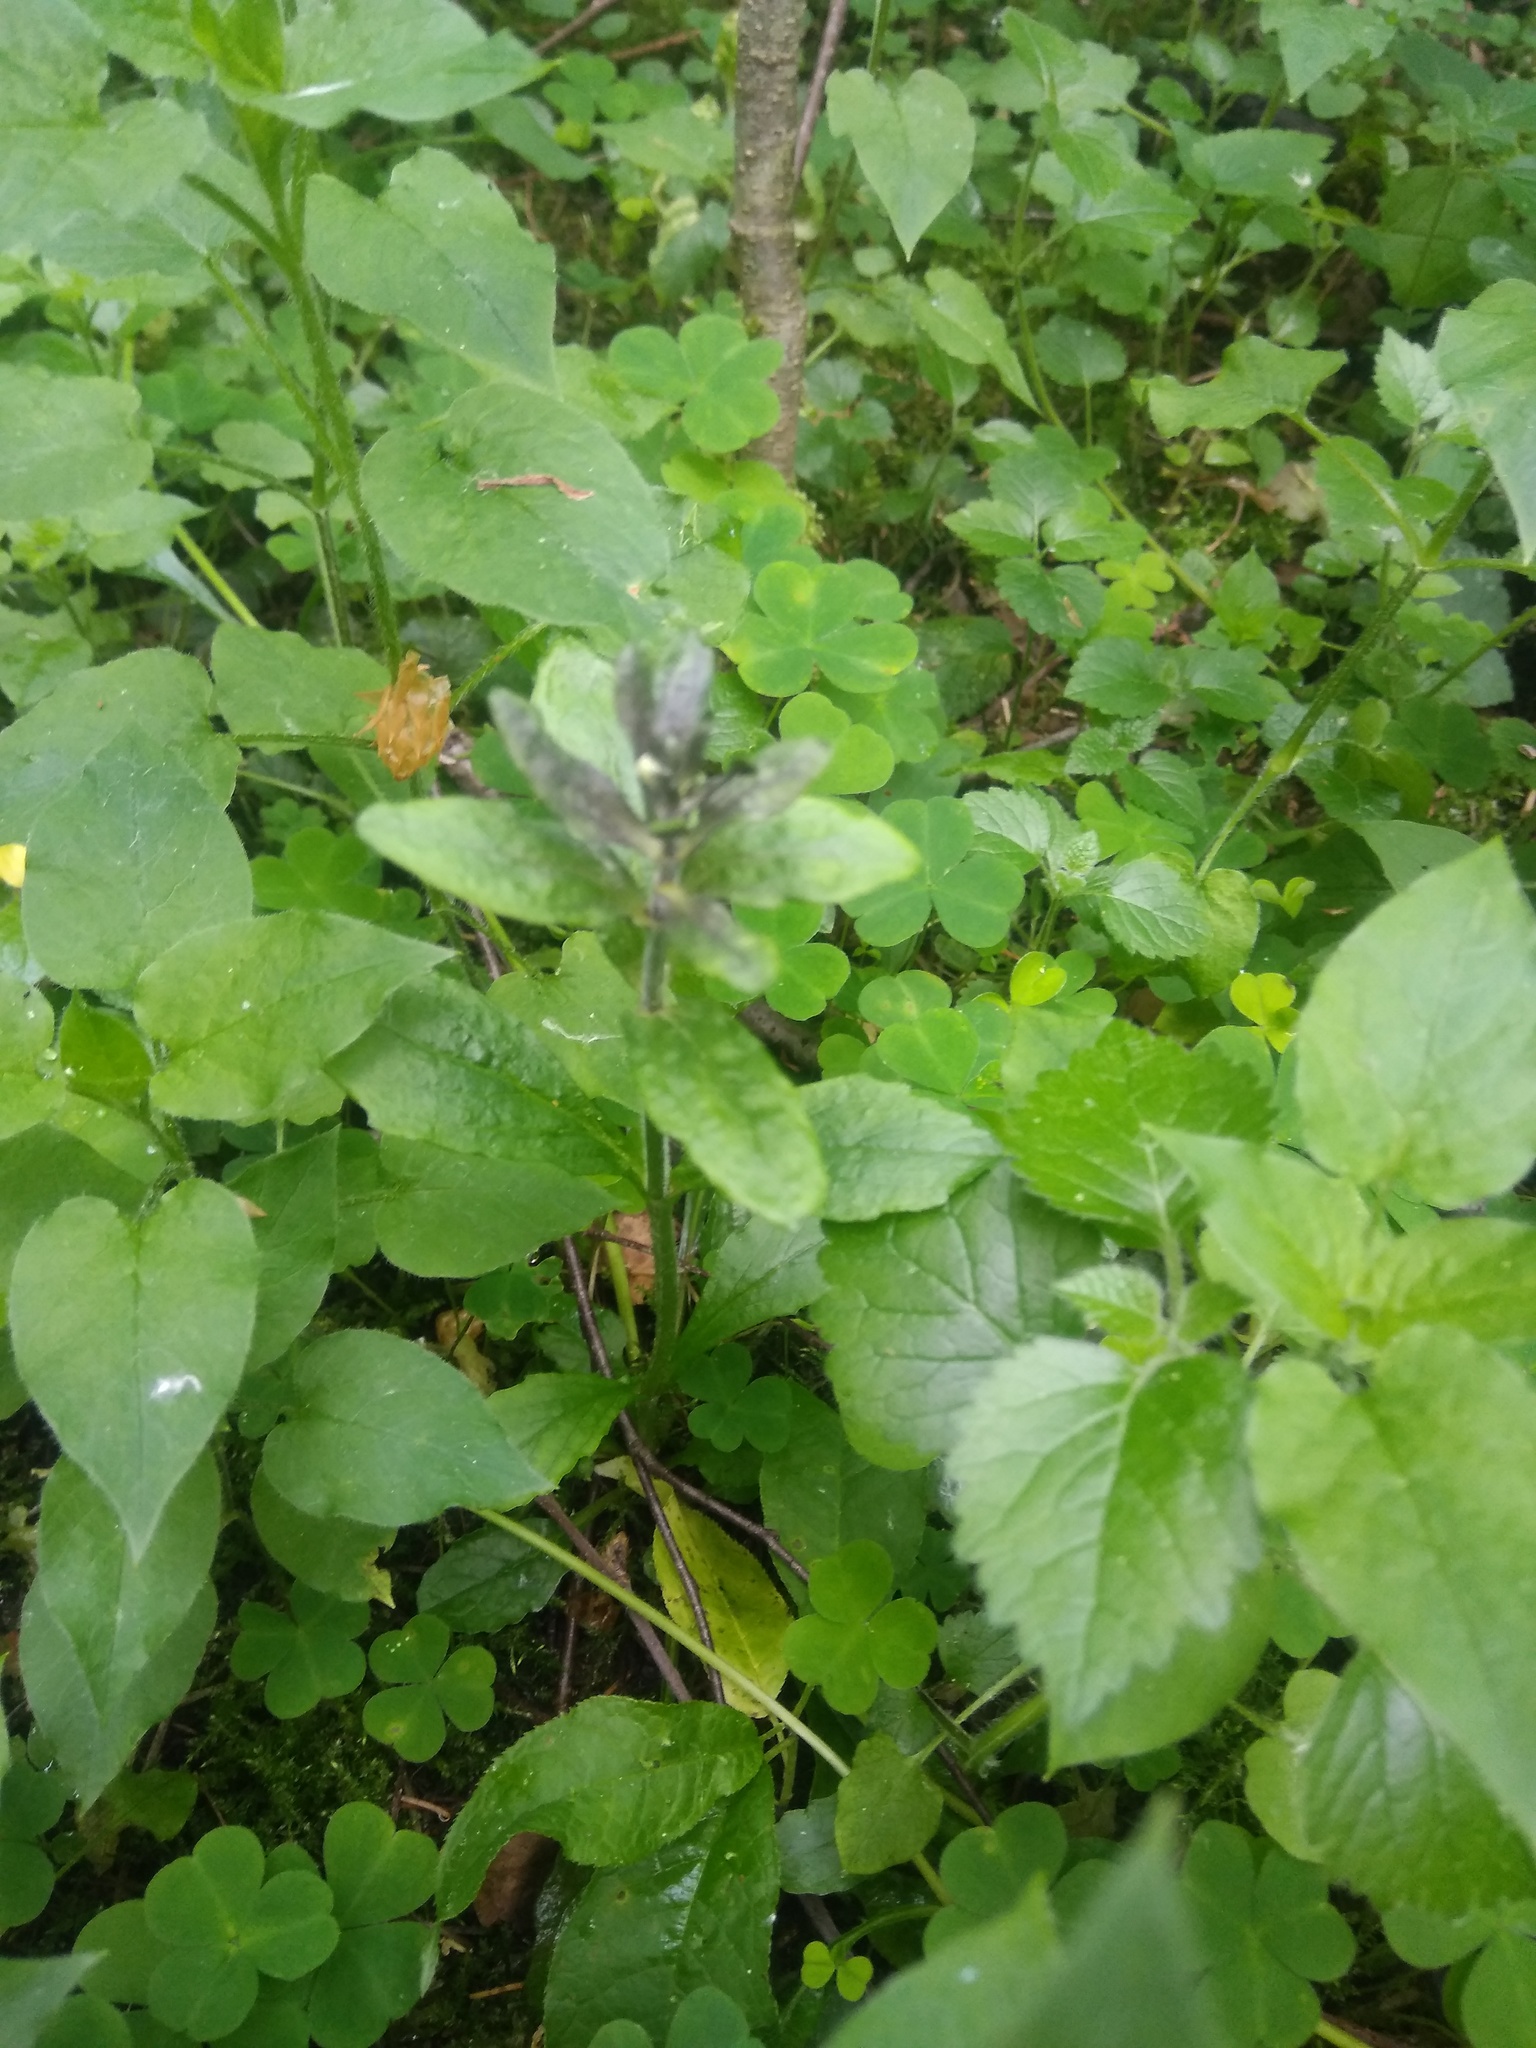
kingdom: Plantae
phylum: Tracheophyta
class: Magnoliopsida
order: Lamiales
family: Lamiaceae
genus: Ajuga
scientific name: Ajuga reptans
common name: Bugle
